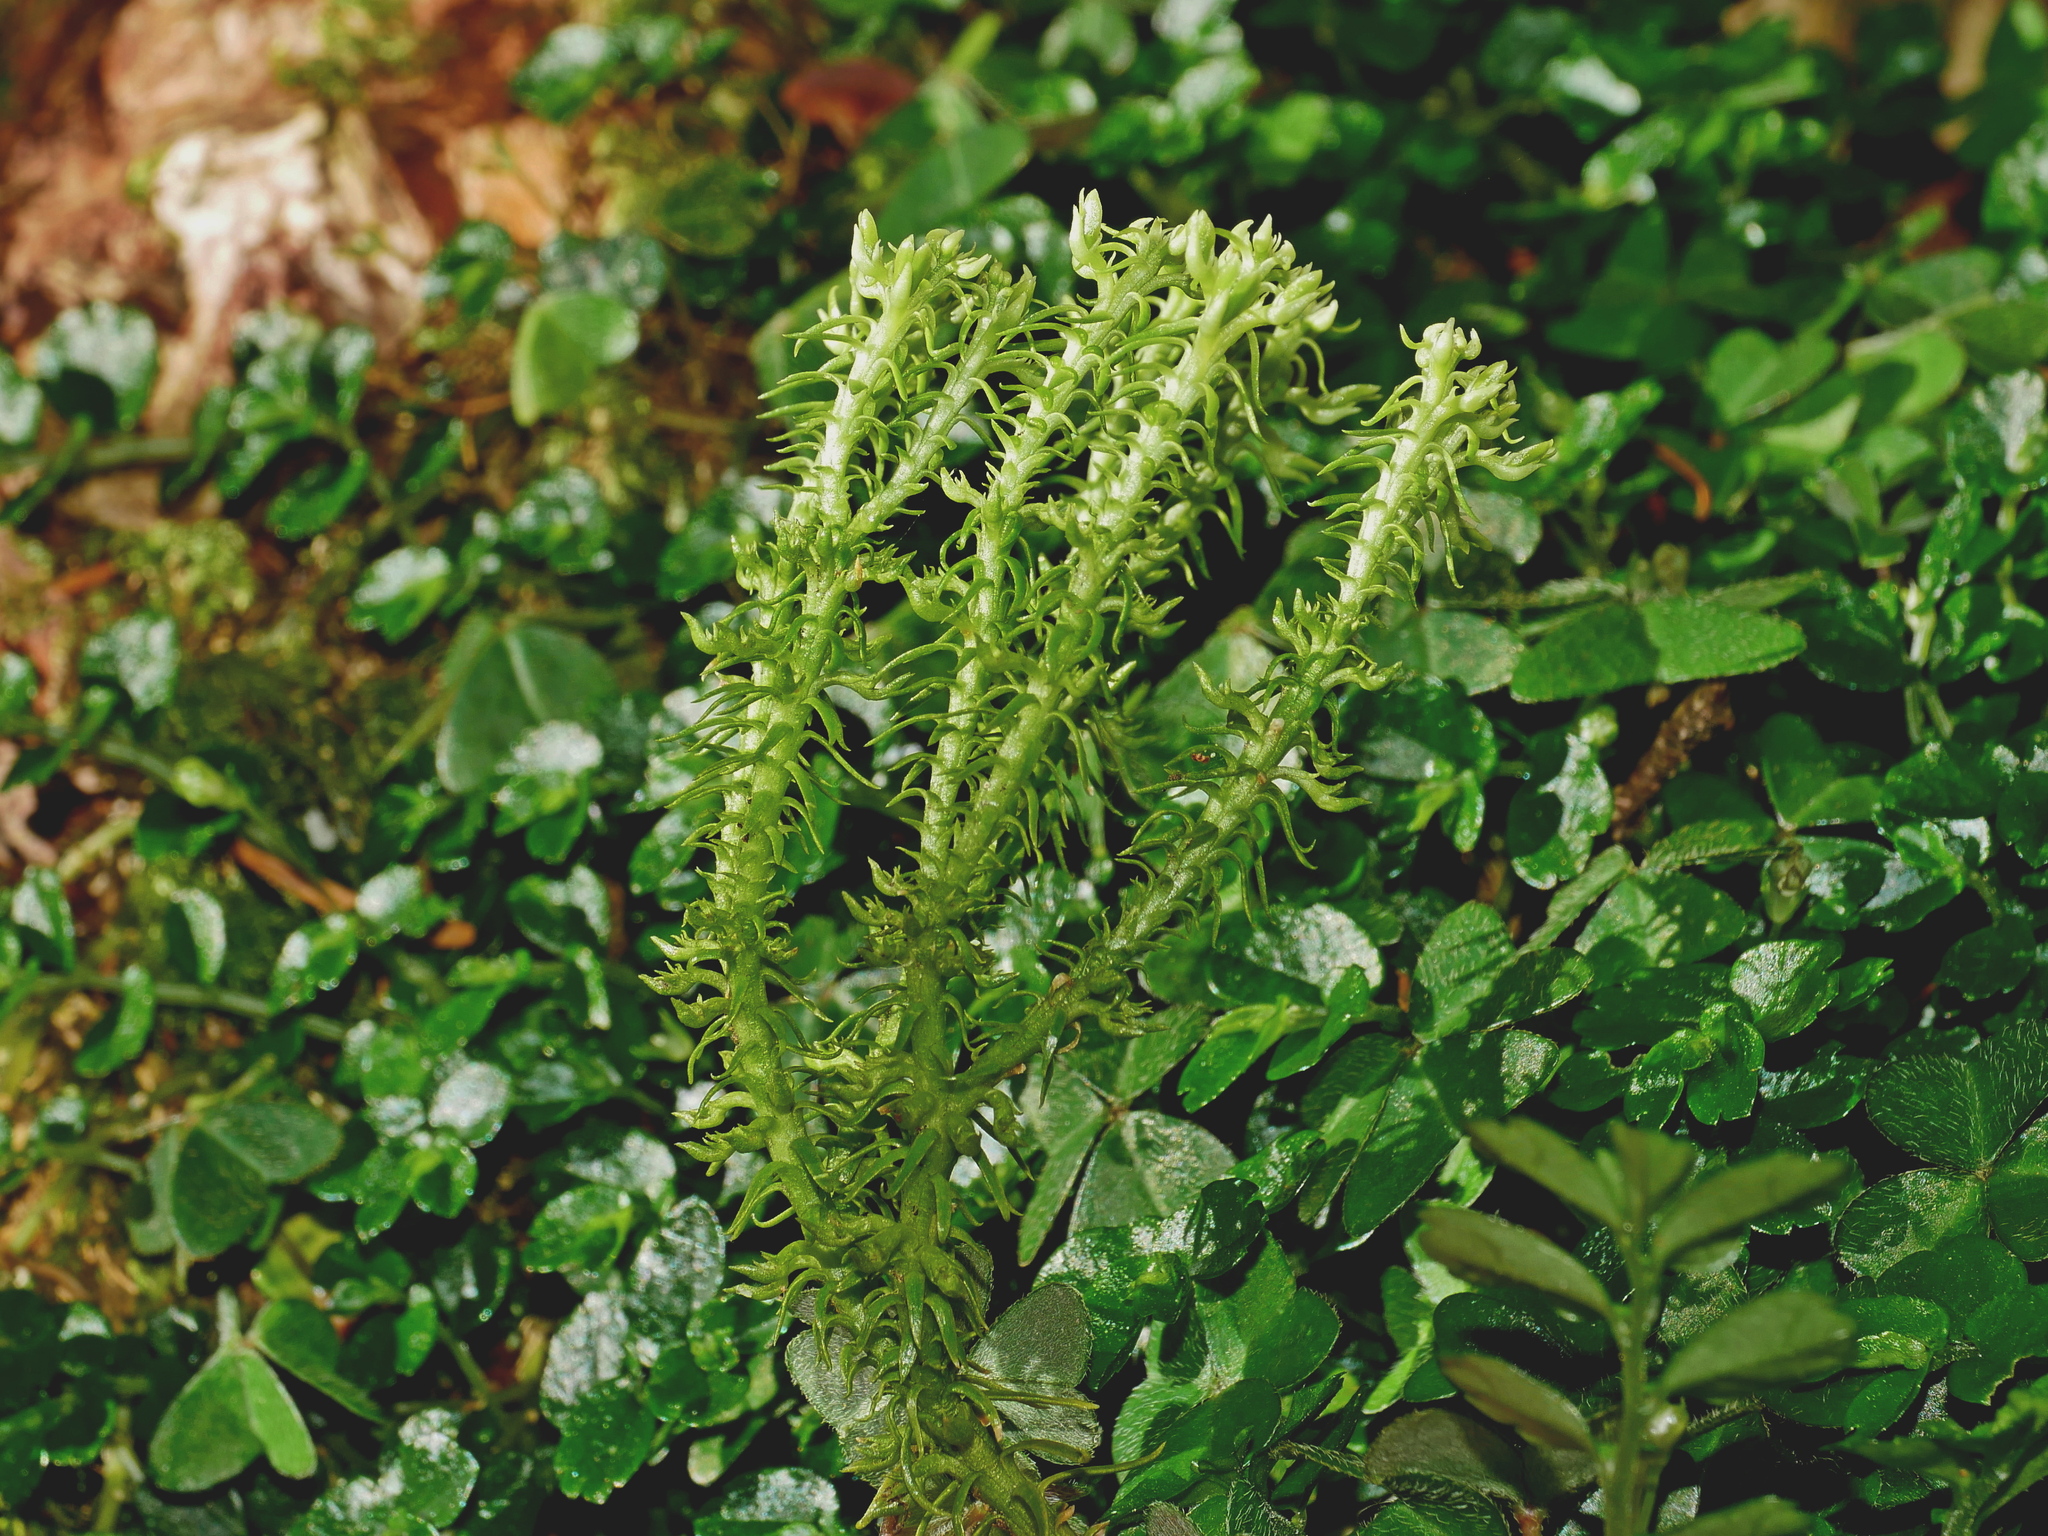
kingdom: Plantae
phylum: Tracheophyta
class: Lycopodiopsida
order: Lycopodiales
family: Lycopodiaceae
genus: Huperzia
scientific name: Huperzia quasipolytrichoides
